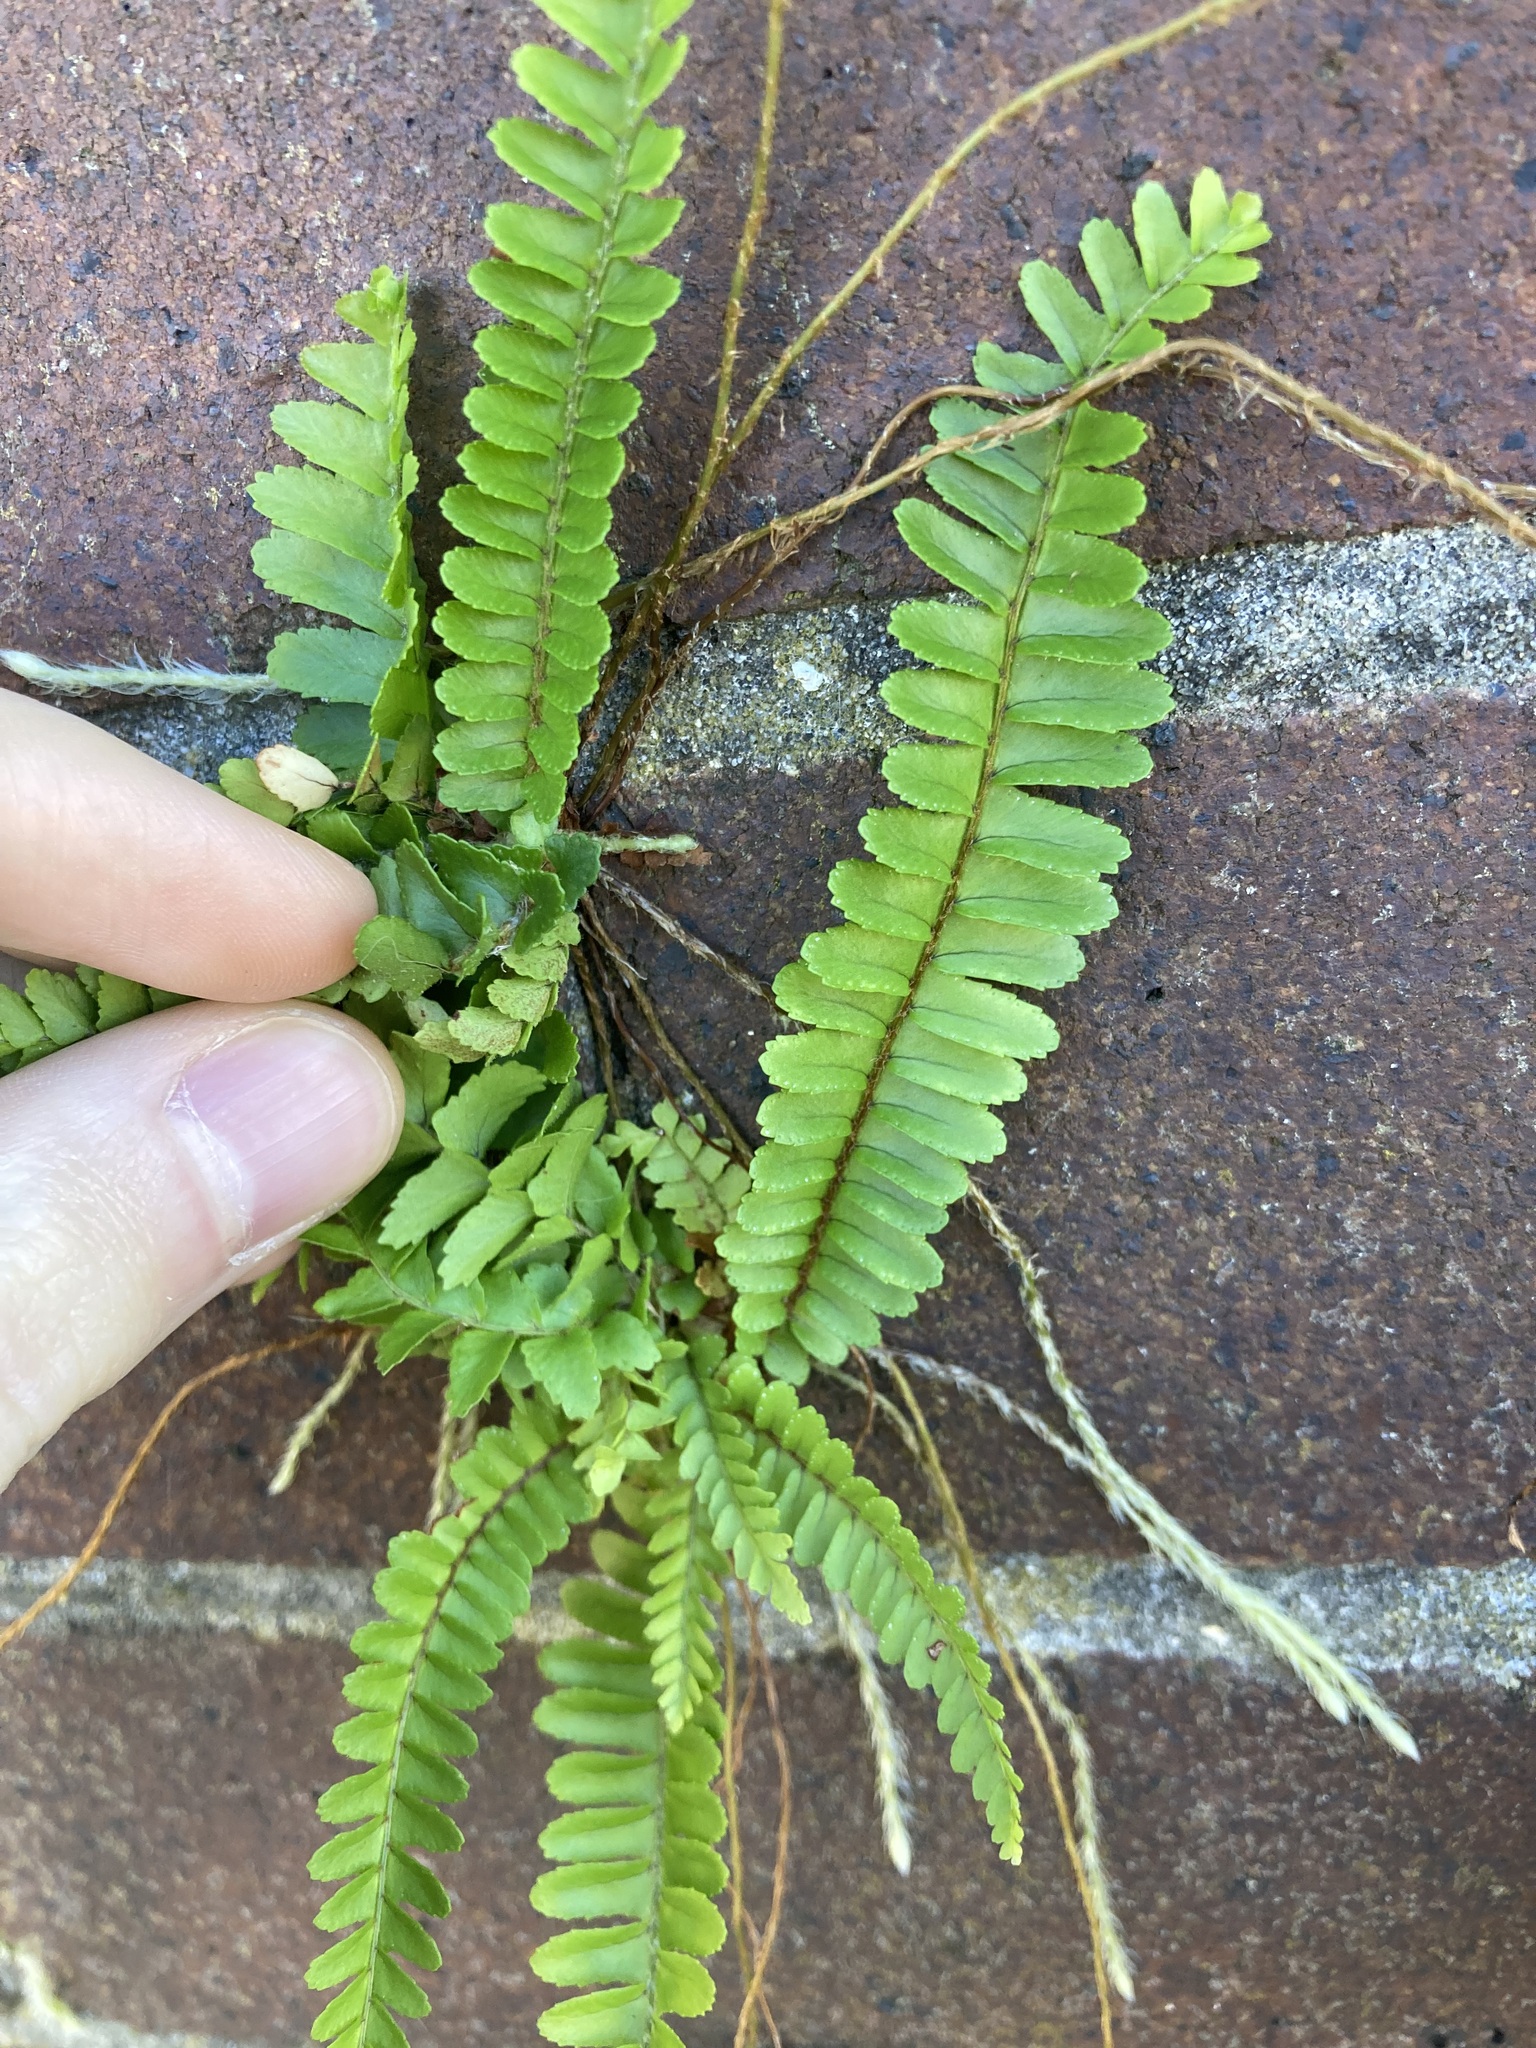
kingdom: Plantae
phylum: Tracheophyta
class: Polypodiopsida
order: Polypodiales
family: Nephrolepidaceae
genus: Nephrolepis
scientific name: Nephrolepis cordifolia
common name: Narrow swordfern
